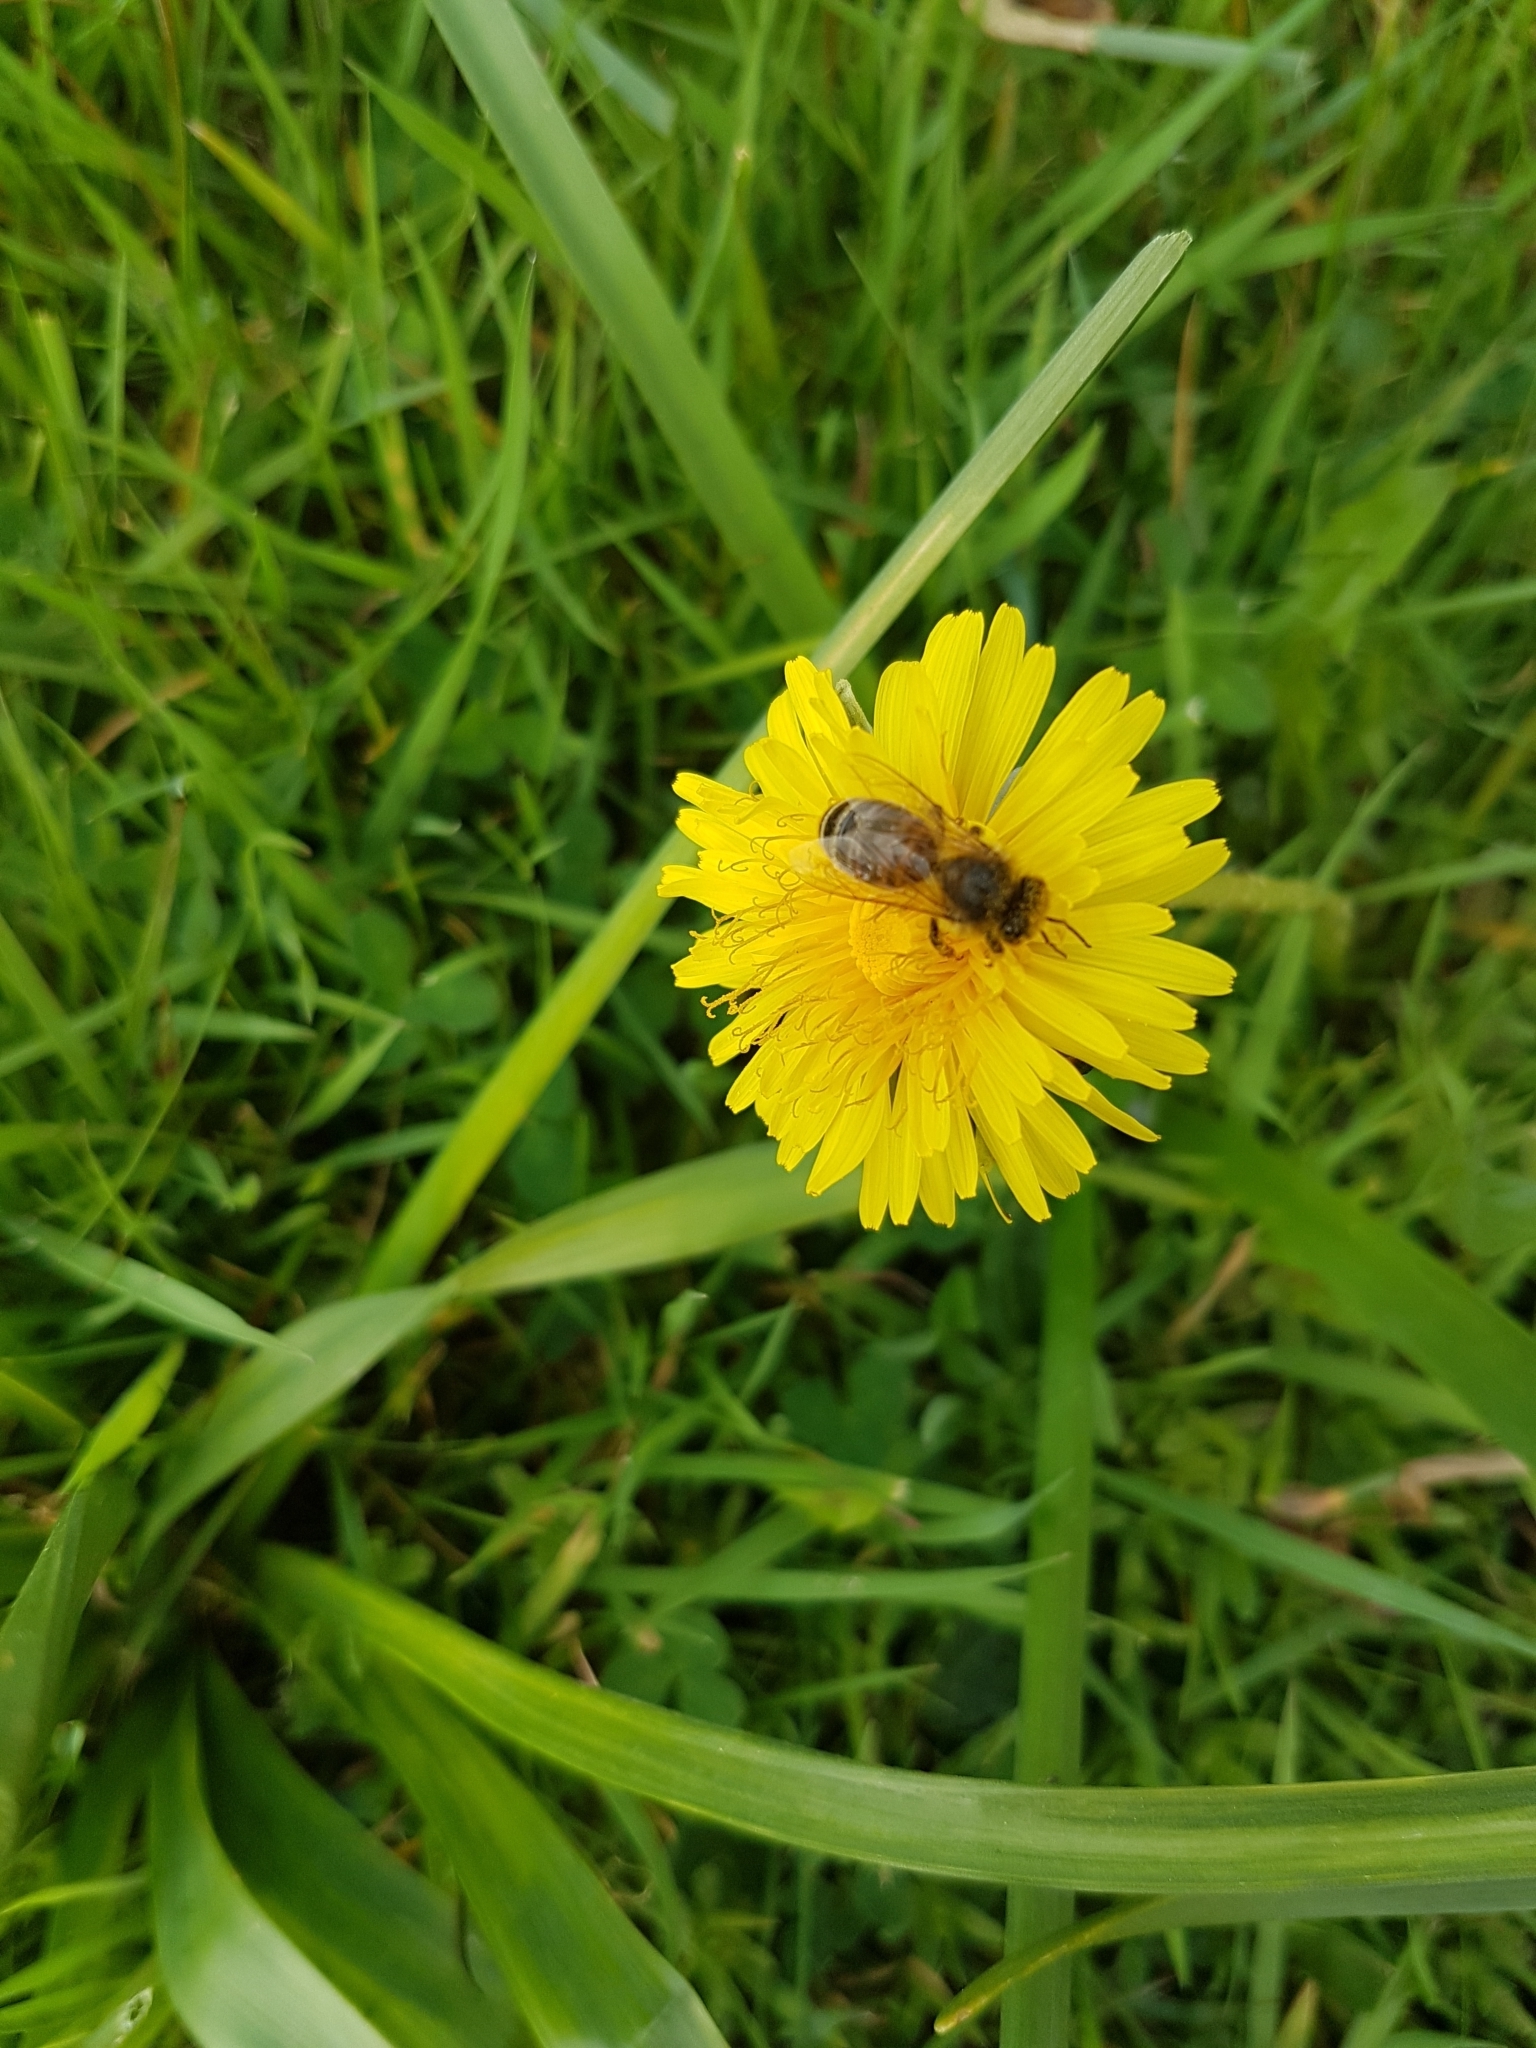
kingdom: Animalia
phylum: Arthropoda
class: Insecta
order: Hymenoptera
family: Apidae
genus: Apis
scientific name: Apis mellifera
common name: Honey bee
